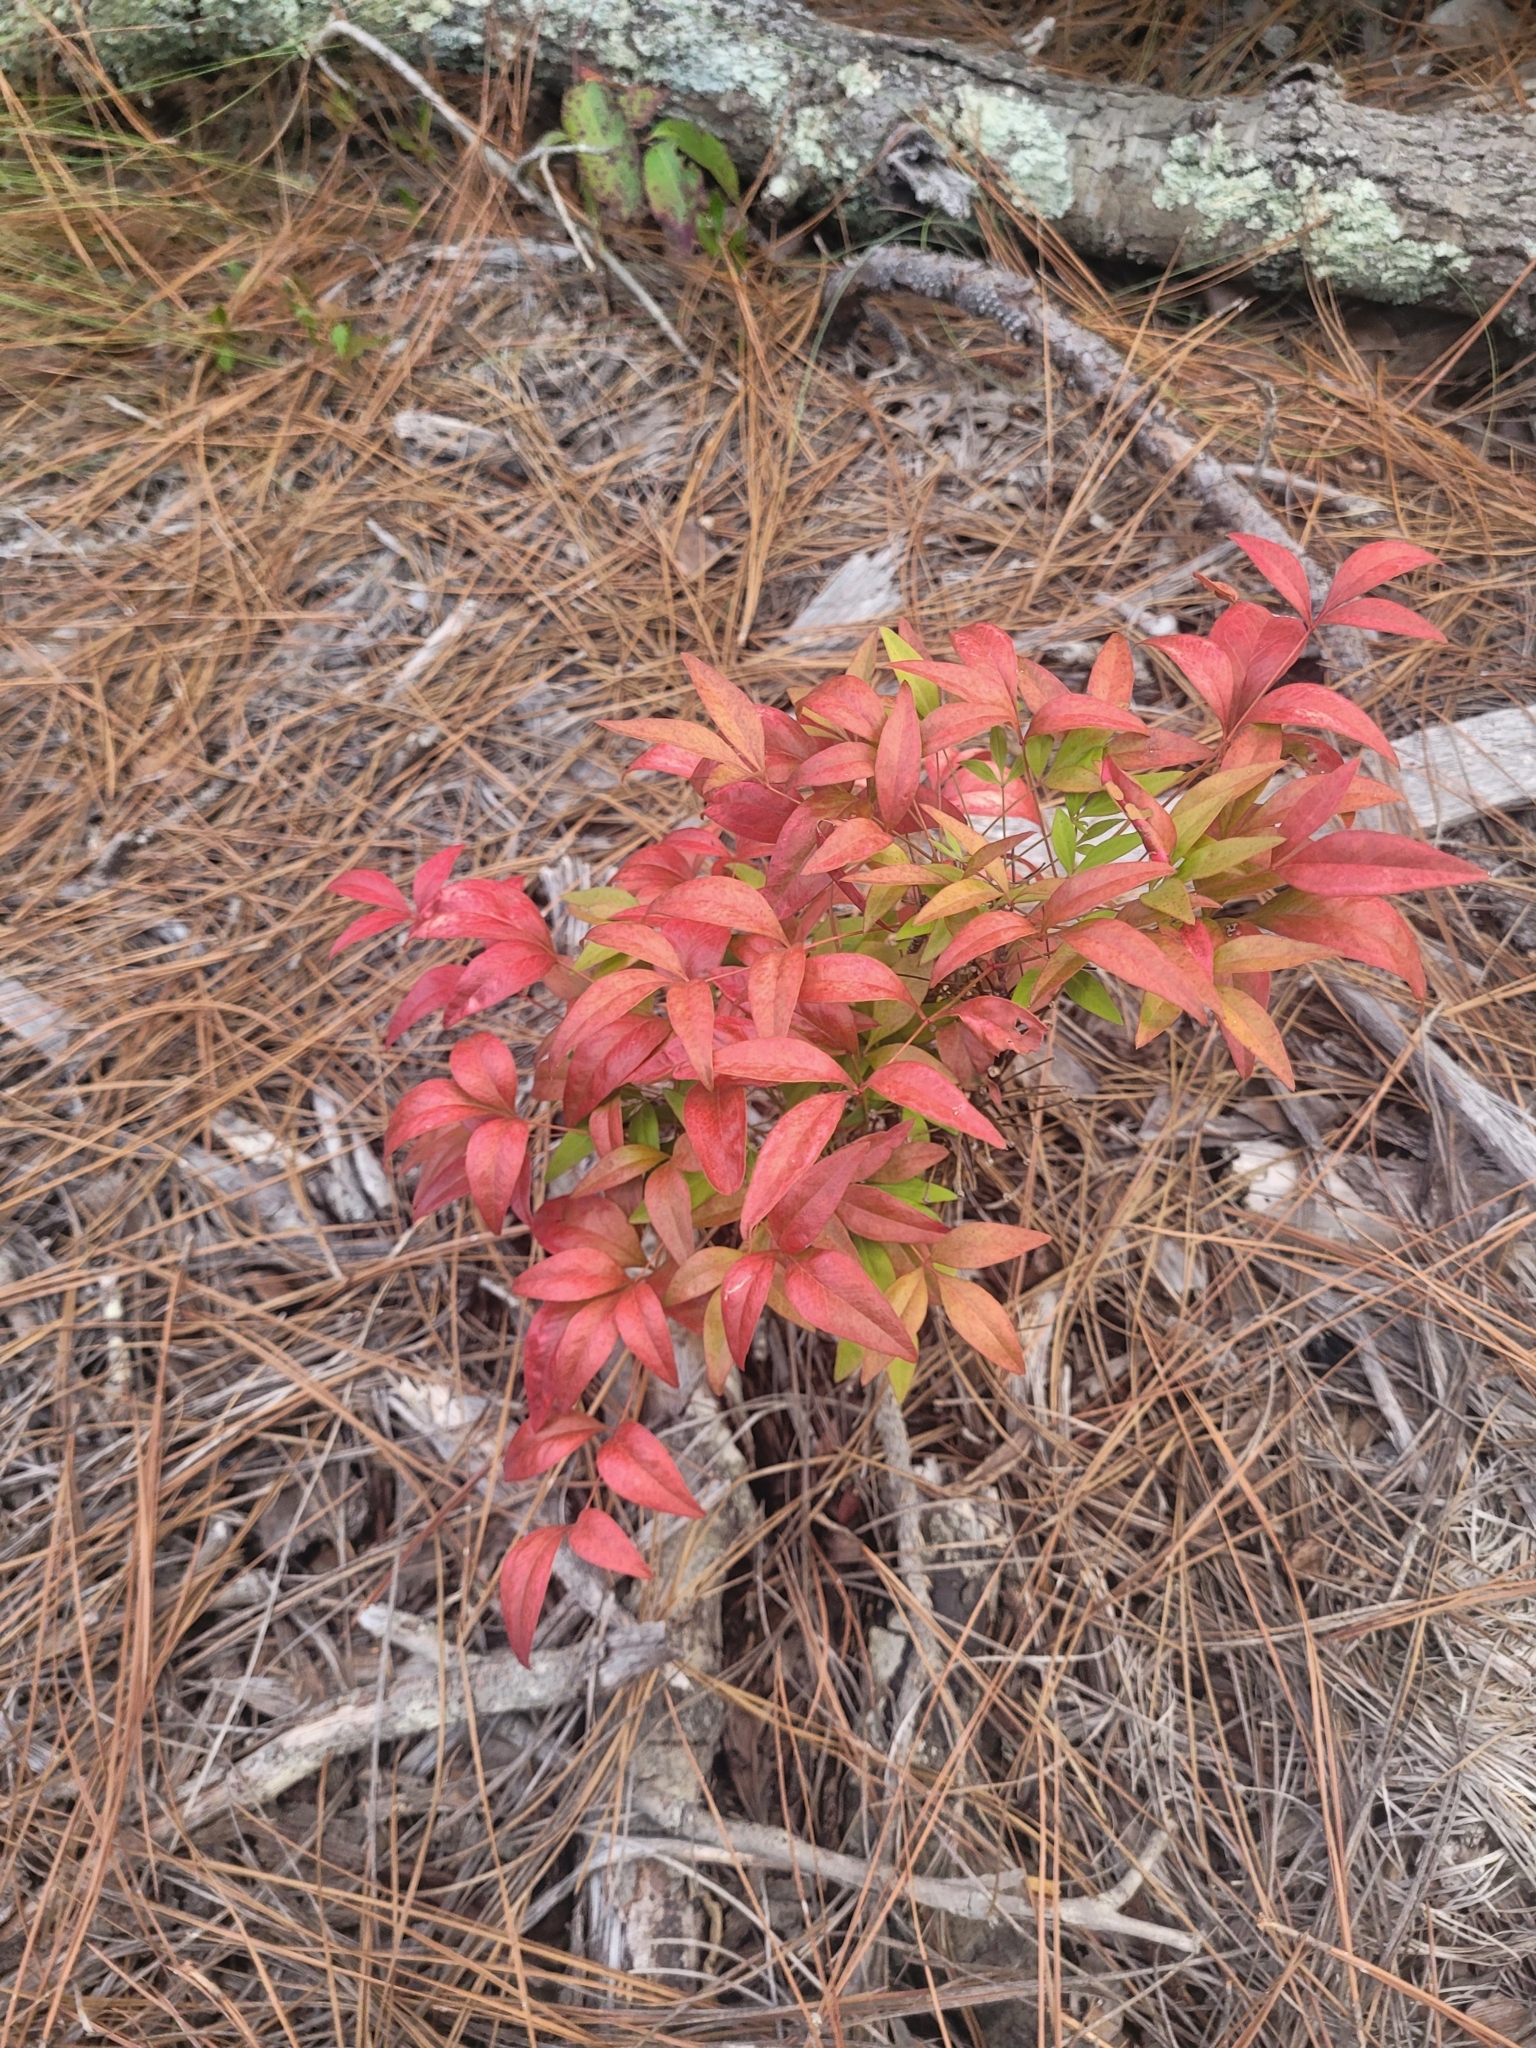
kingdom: Plantae
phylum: Tracheophyta
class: Magnoliopsida
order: Ranunculales
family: Berberidaceae
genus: Nandina
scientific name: Nandina domestica
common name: Sacred bamboo
